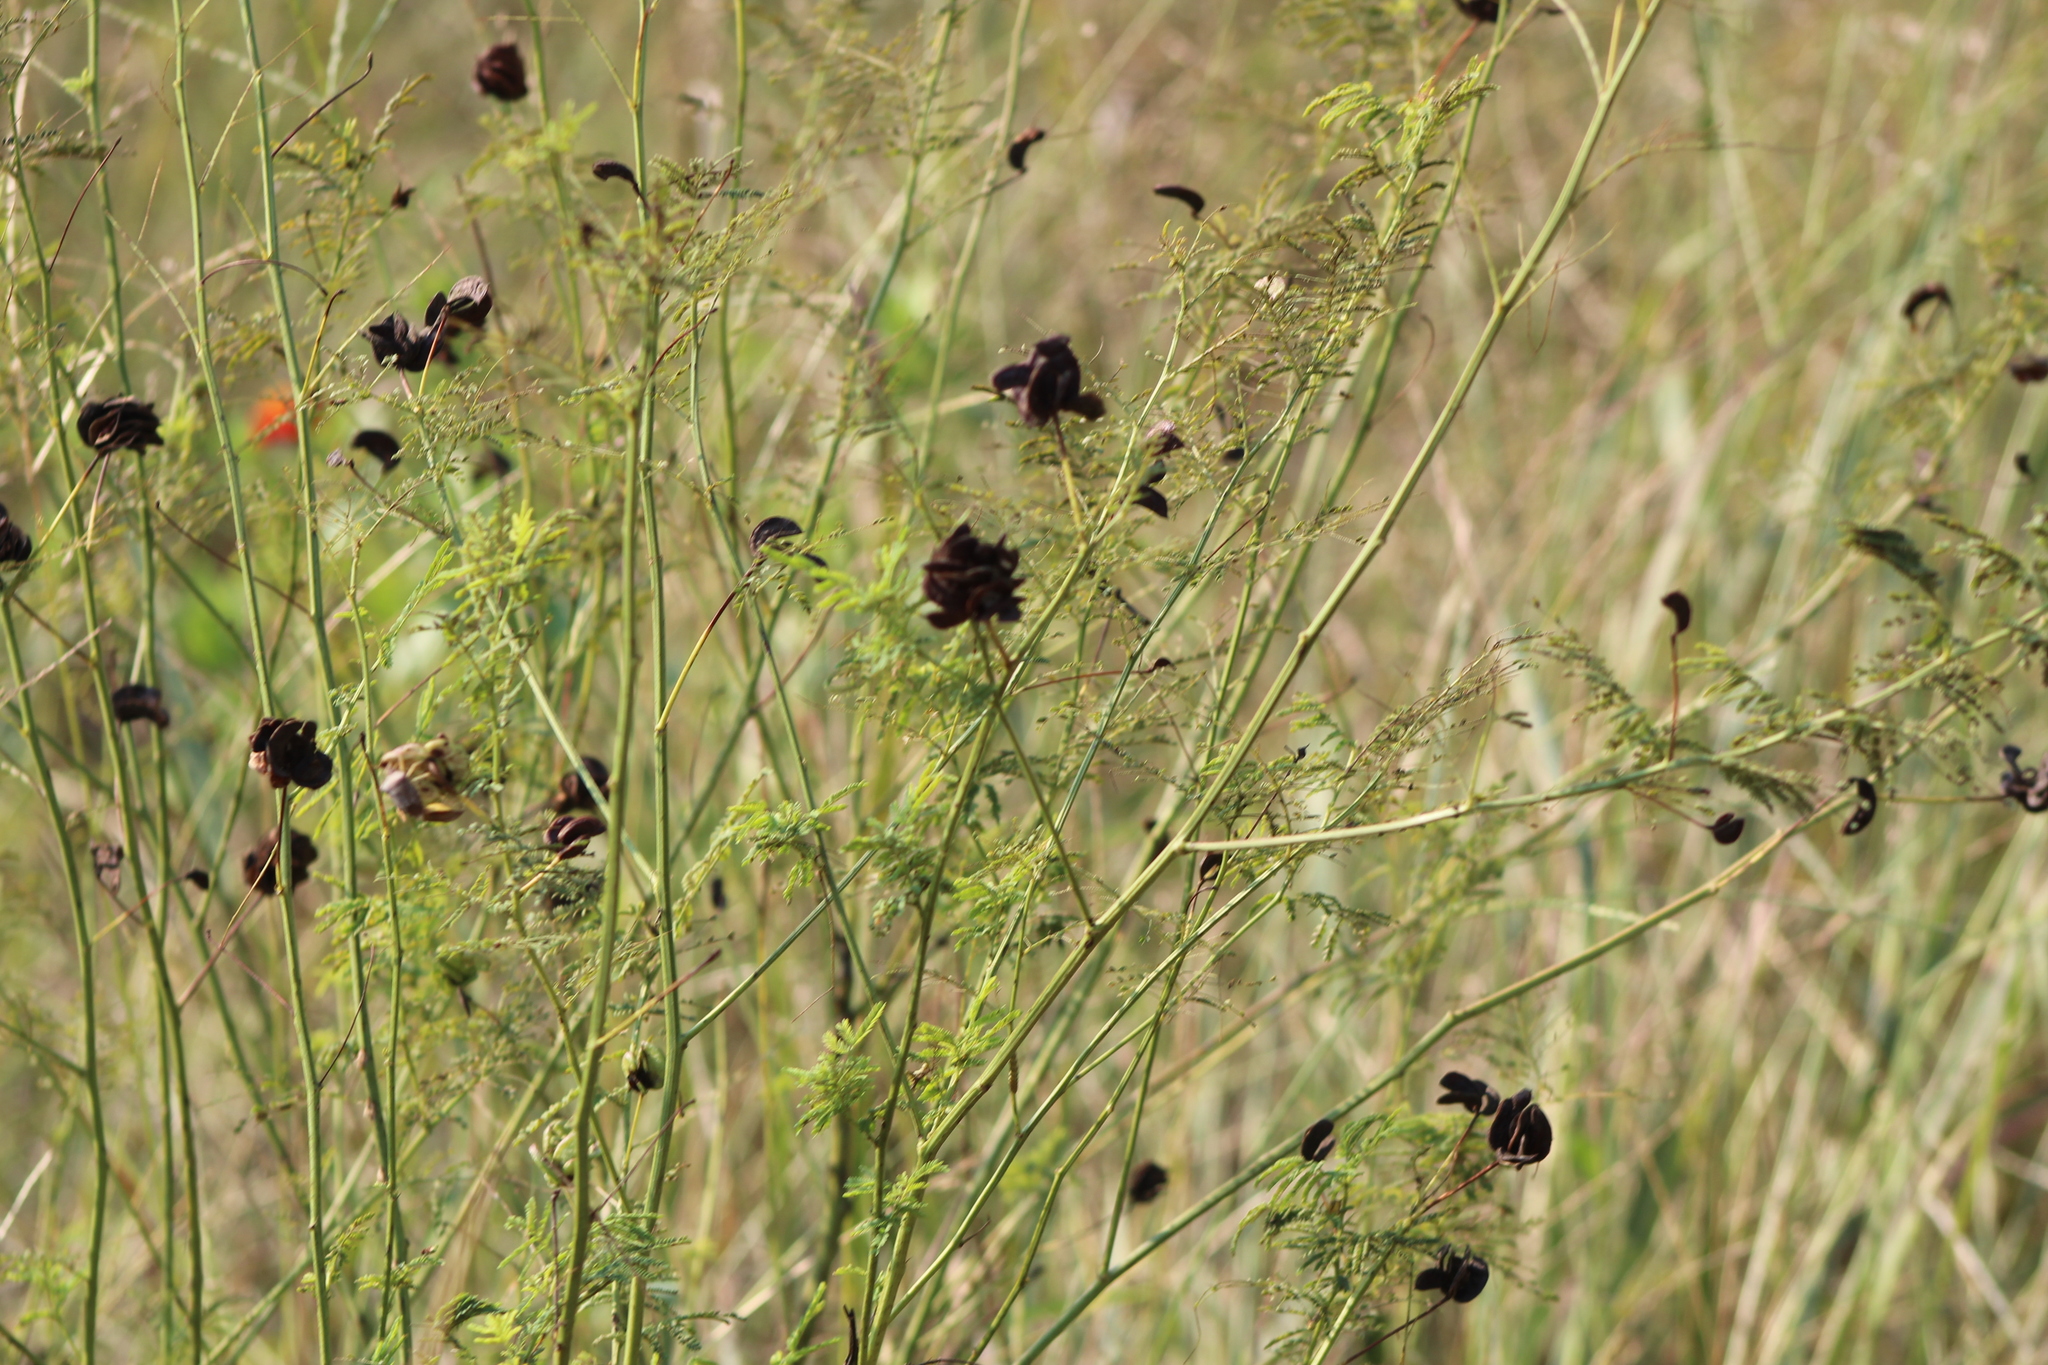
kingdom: Plantae
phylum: Tracheophyta
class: Magnoliopsida
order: Fabales
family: Fabaceae
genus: Desmanthus
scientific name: Desmanthus illinoensis
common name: Illinois bundle-flower
